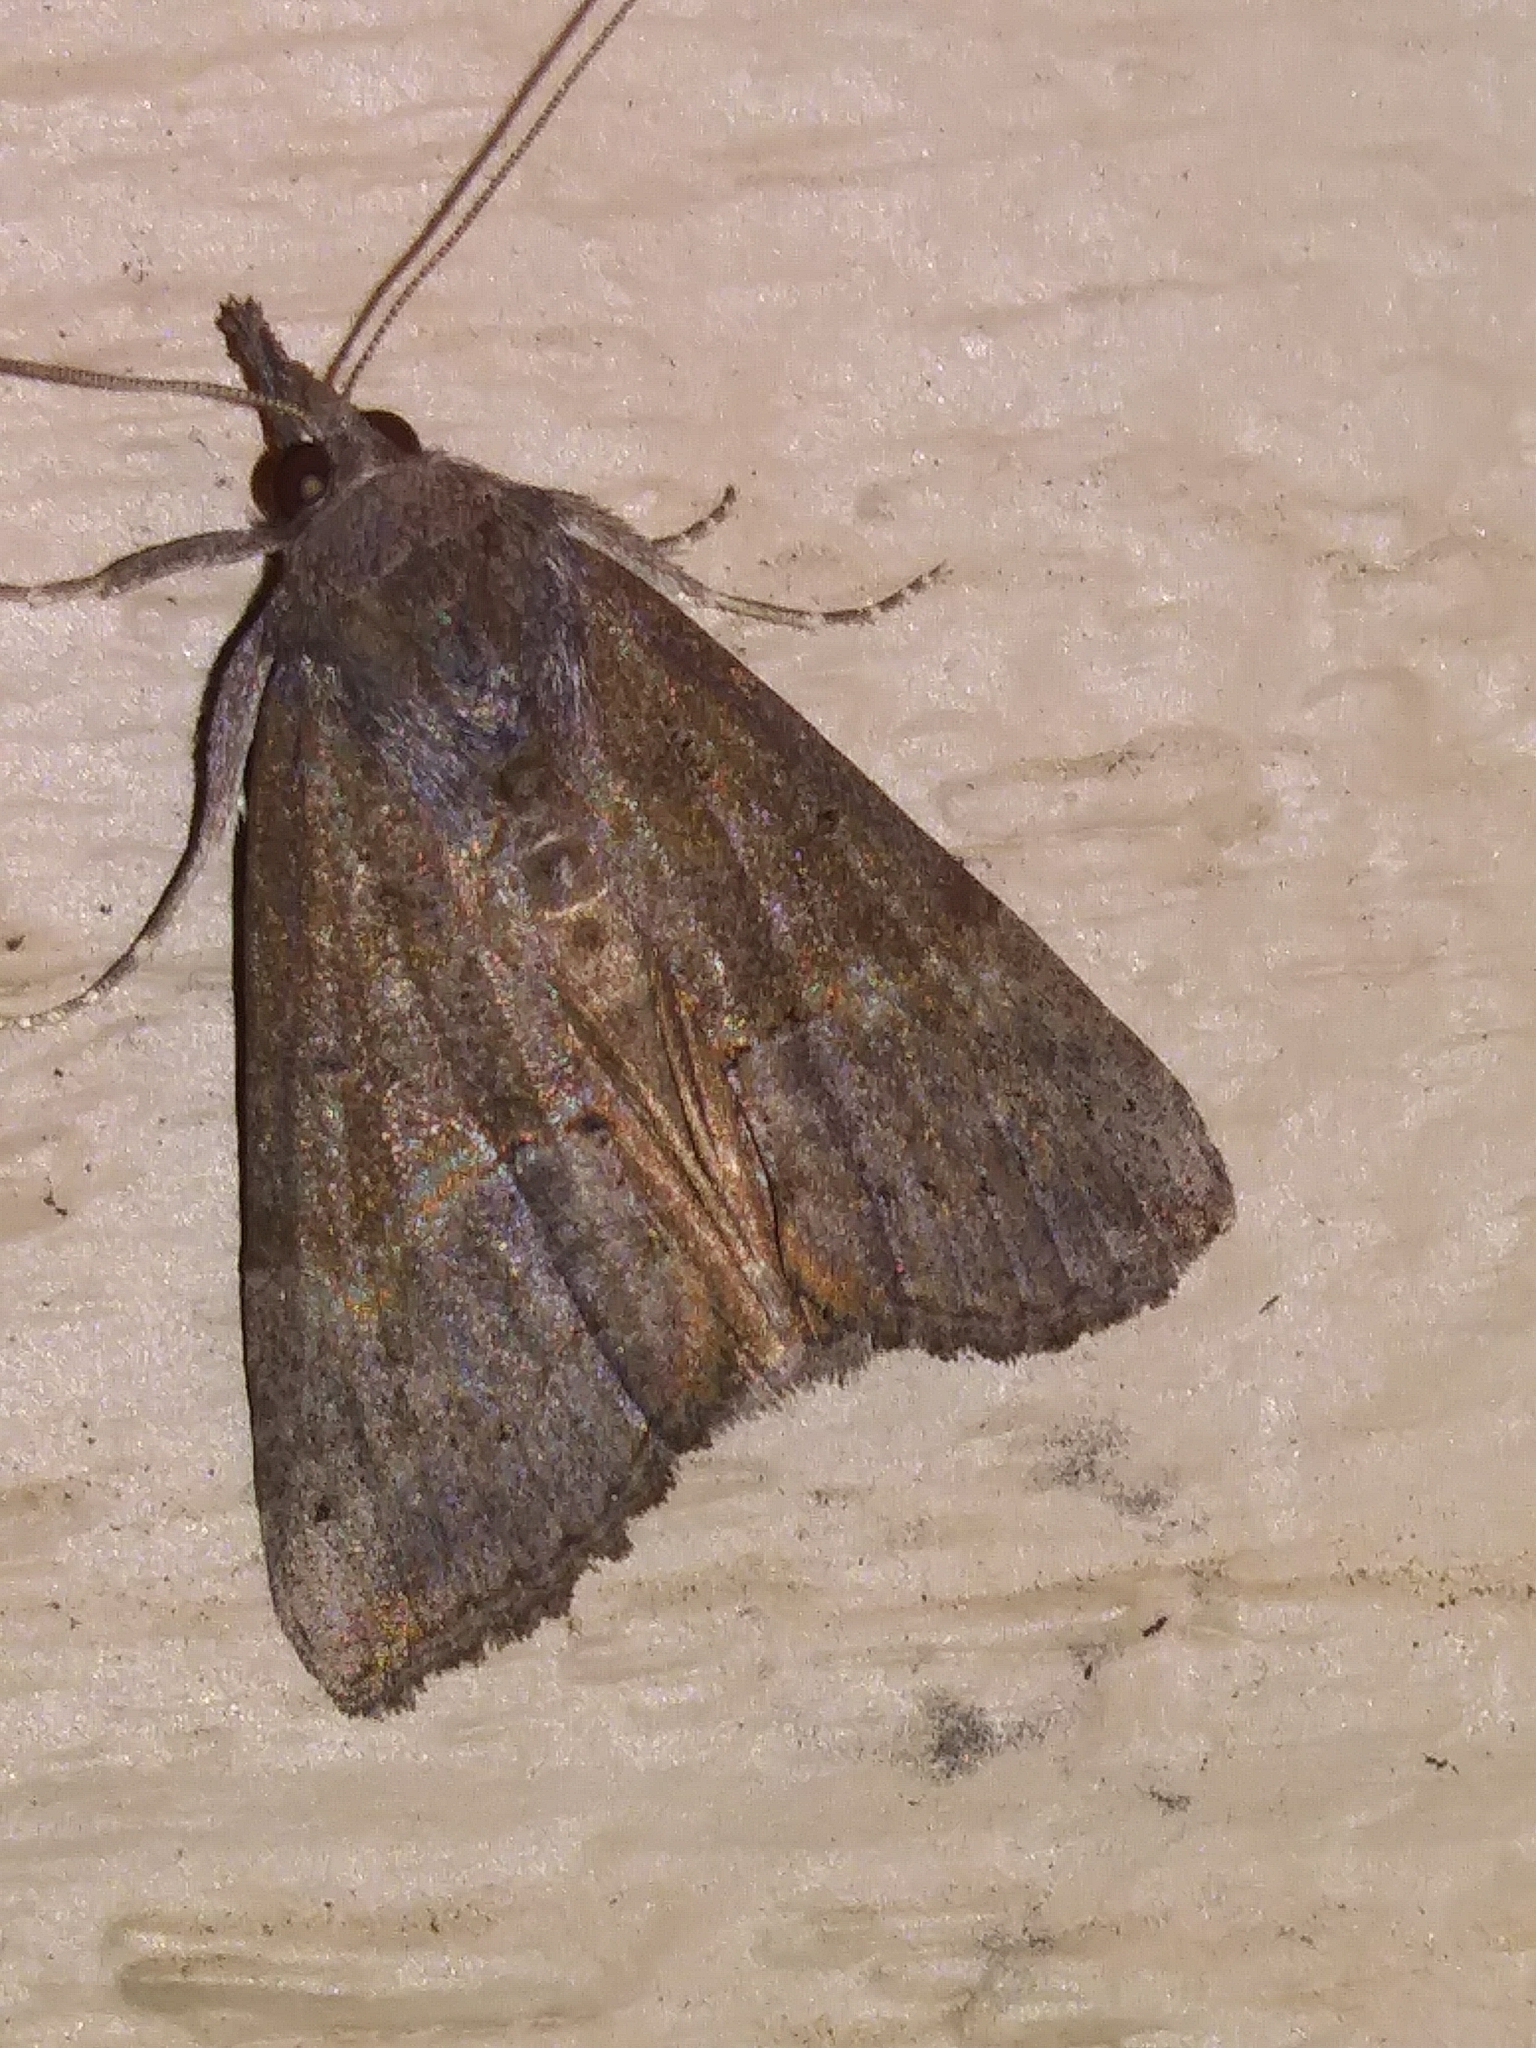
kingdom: Animalia
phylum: Arthropoda
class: Insecta
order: Lepidoptera
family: Erebidae
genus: Hypena
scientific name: Hypena scabra
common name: Green cloverworm
